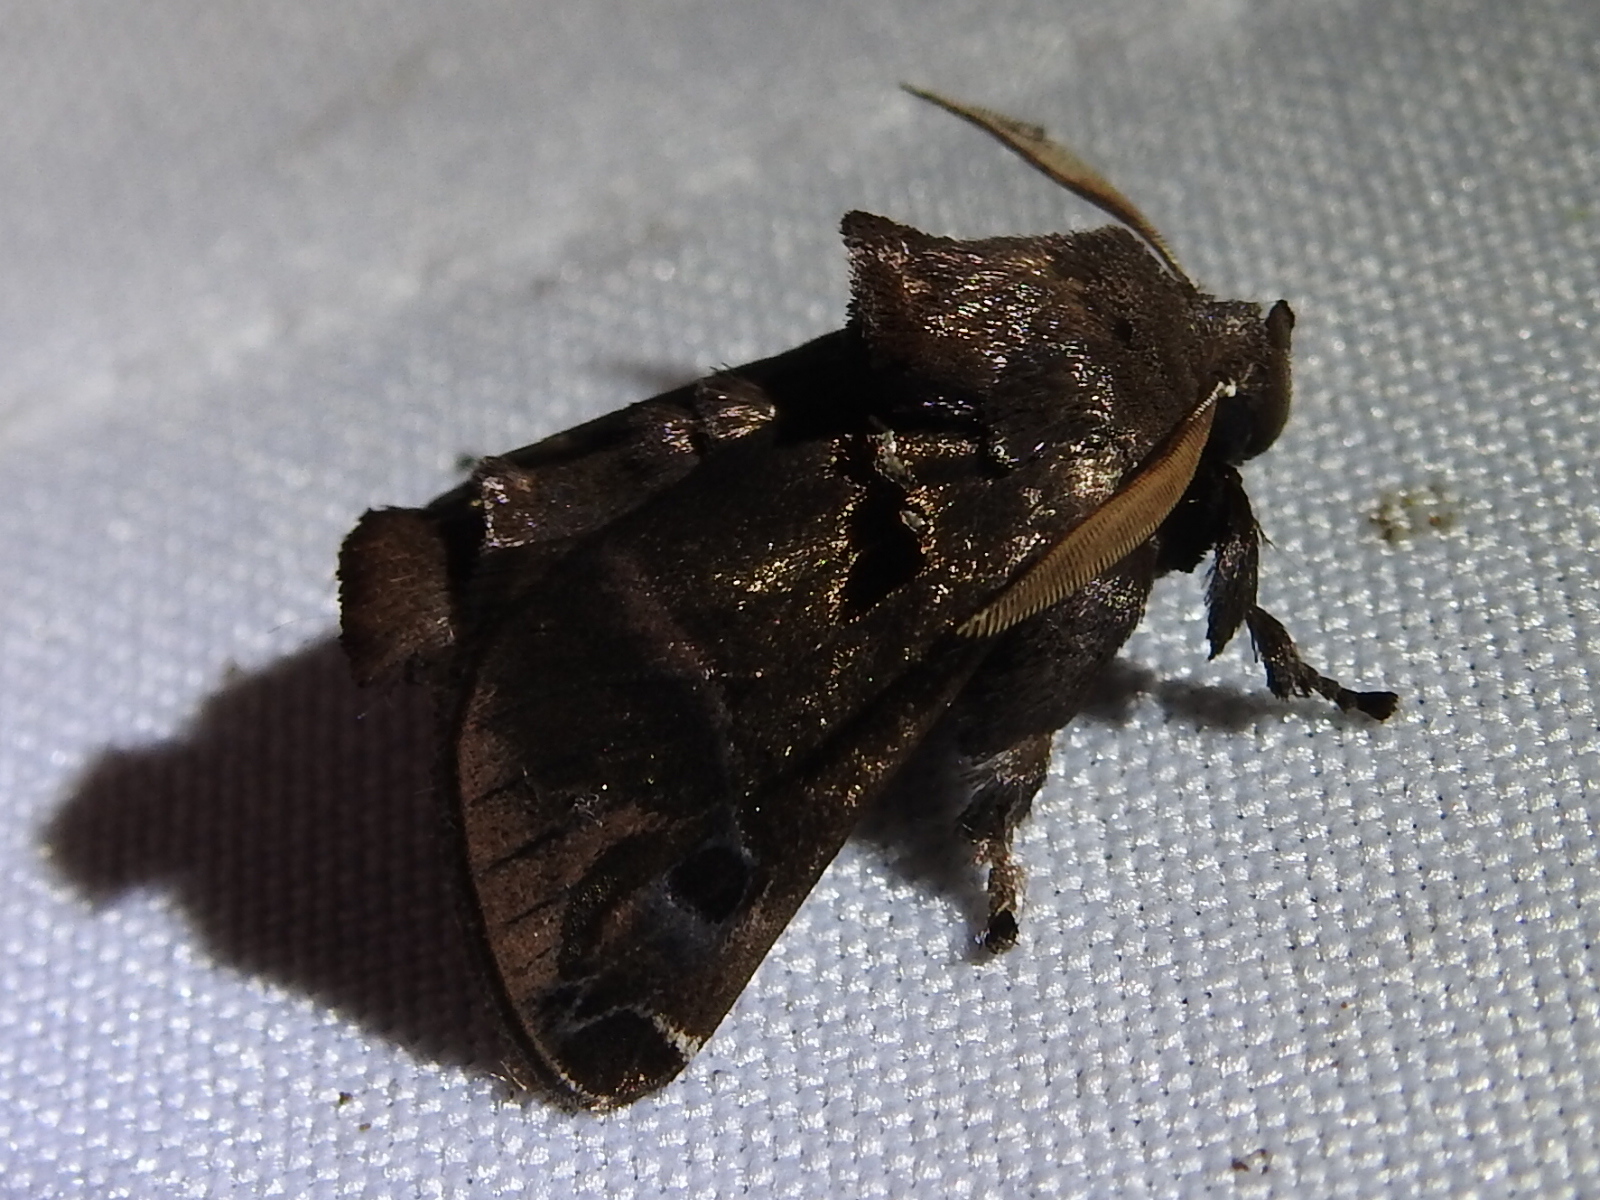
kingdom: Animalia
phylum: Arthropoda
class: Insecta
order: Lepidoptera
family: Limacodidae
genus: Semyra
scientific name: Semyra irena
